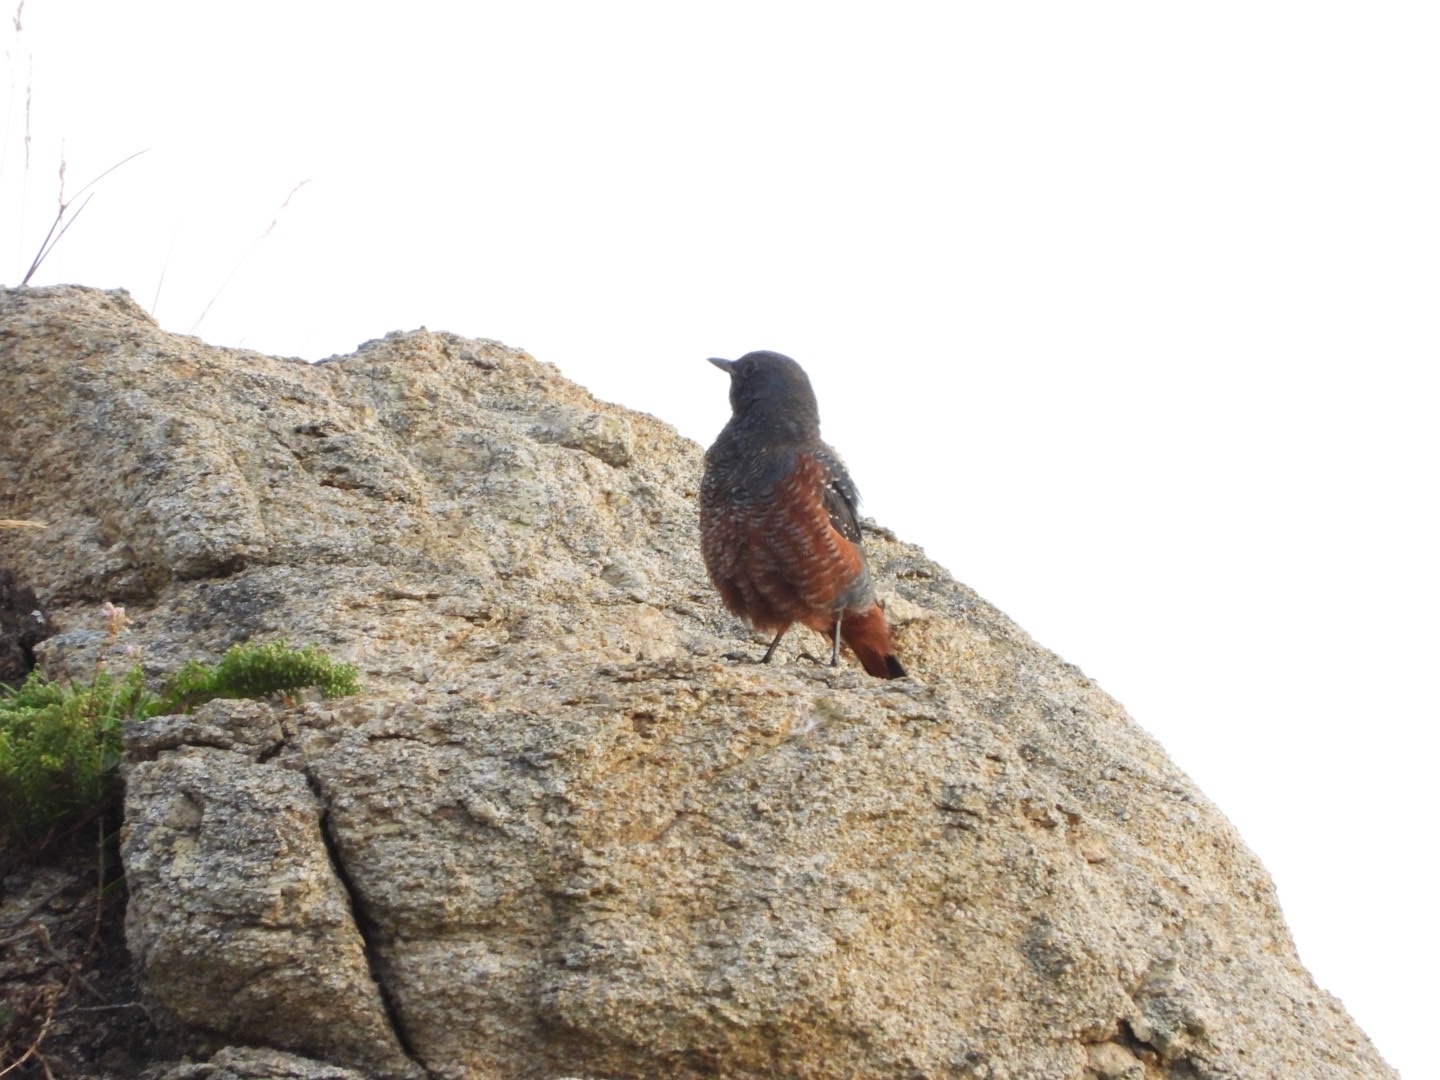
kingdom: Animalia
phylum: Chordata
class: Aves
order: Passeriformes
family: Muscicapidae
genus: Monticola
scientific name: Monticola solitarius
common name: Blue rock thrush
